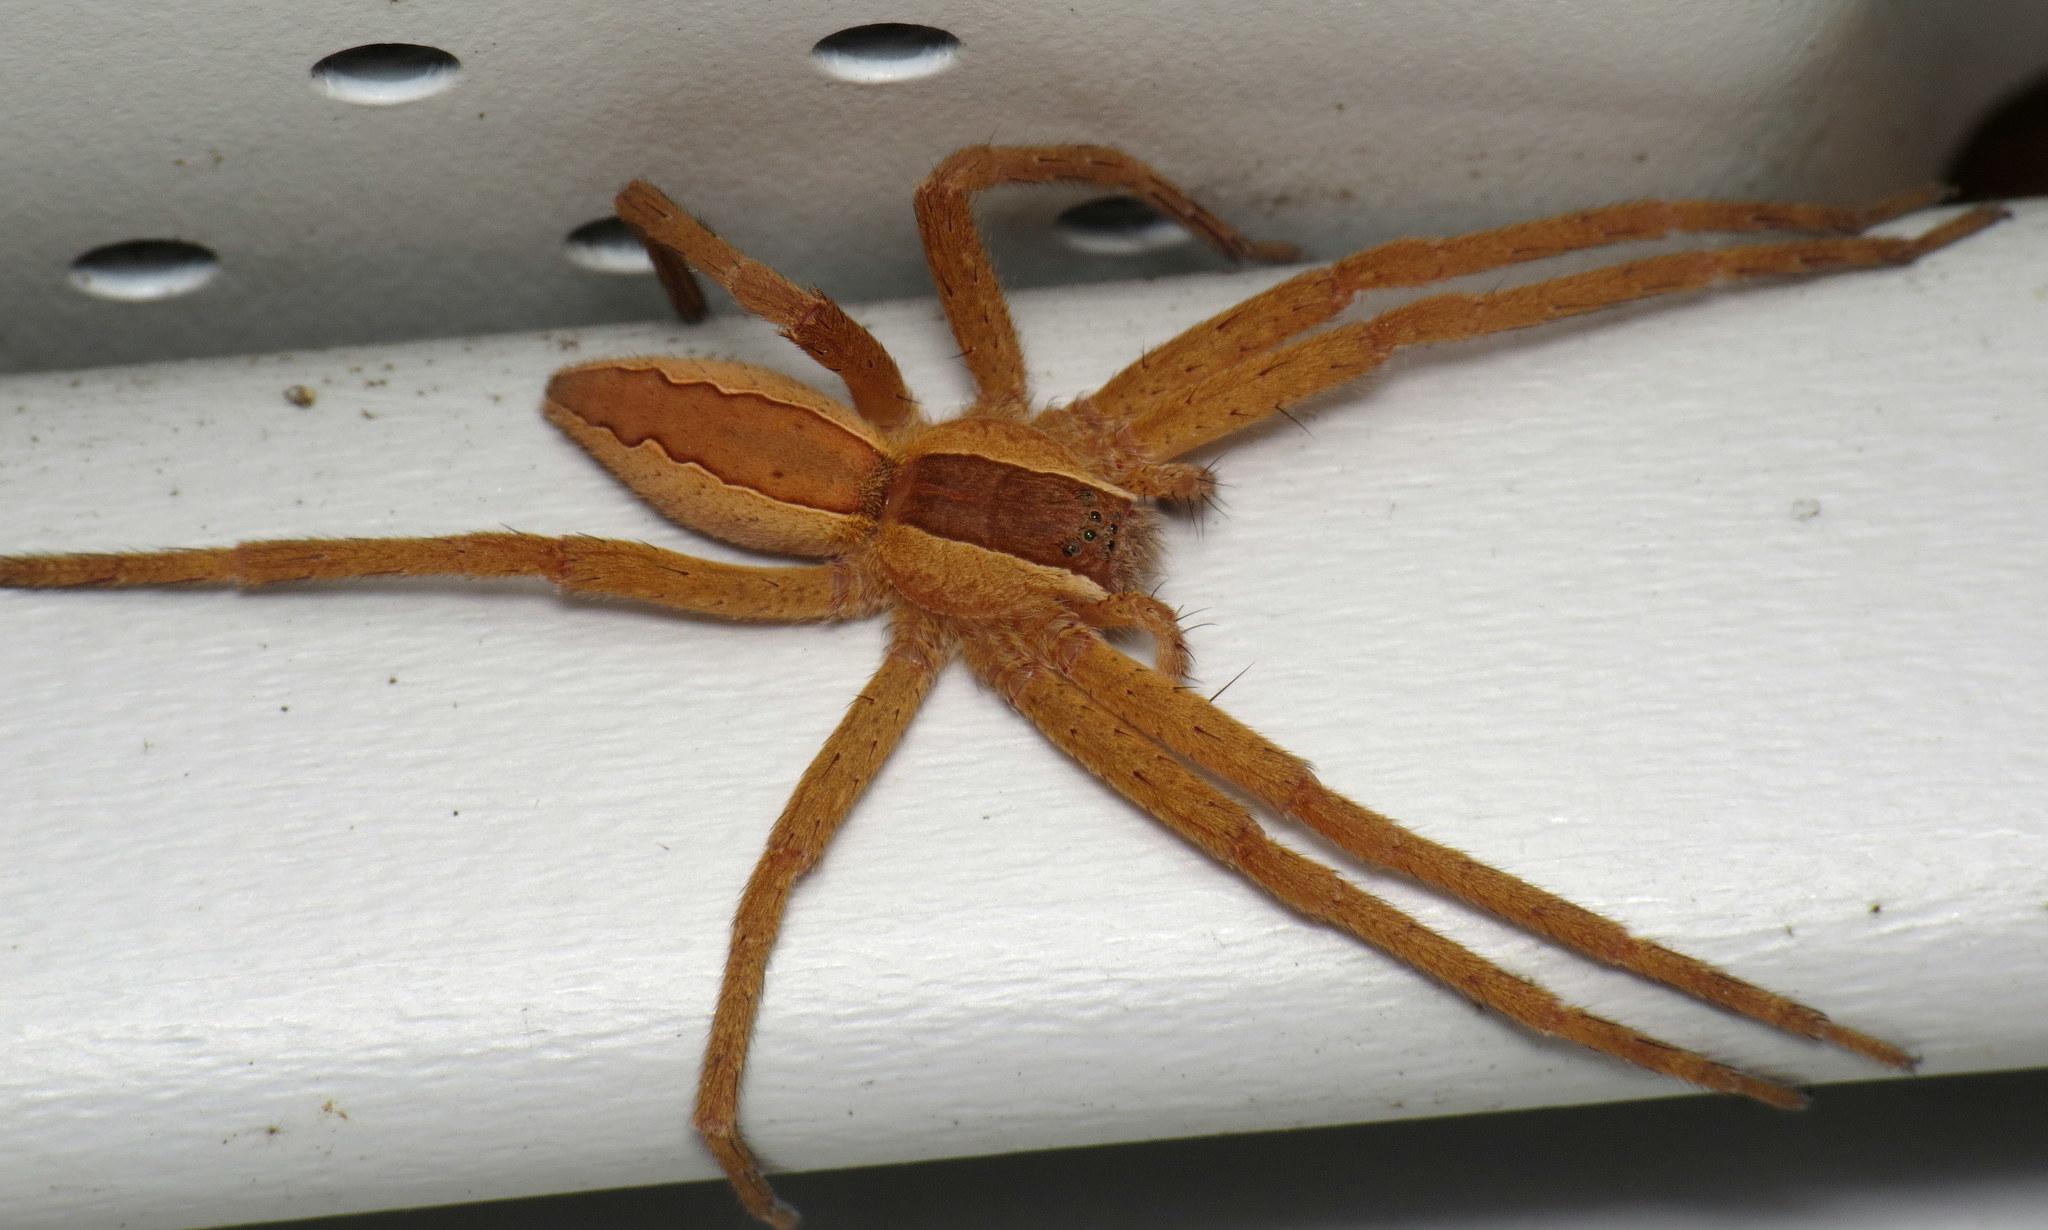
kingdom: Animalia
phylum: Arthropoda
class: Arachnida
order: Araneae
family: Pisauridae
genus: Pisaurina
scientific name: Pisaurina mira
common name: American nursery web spider
